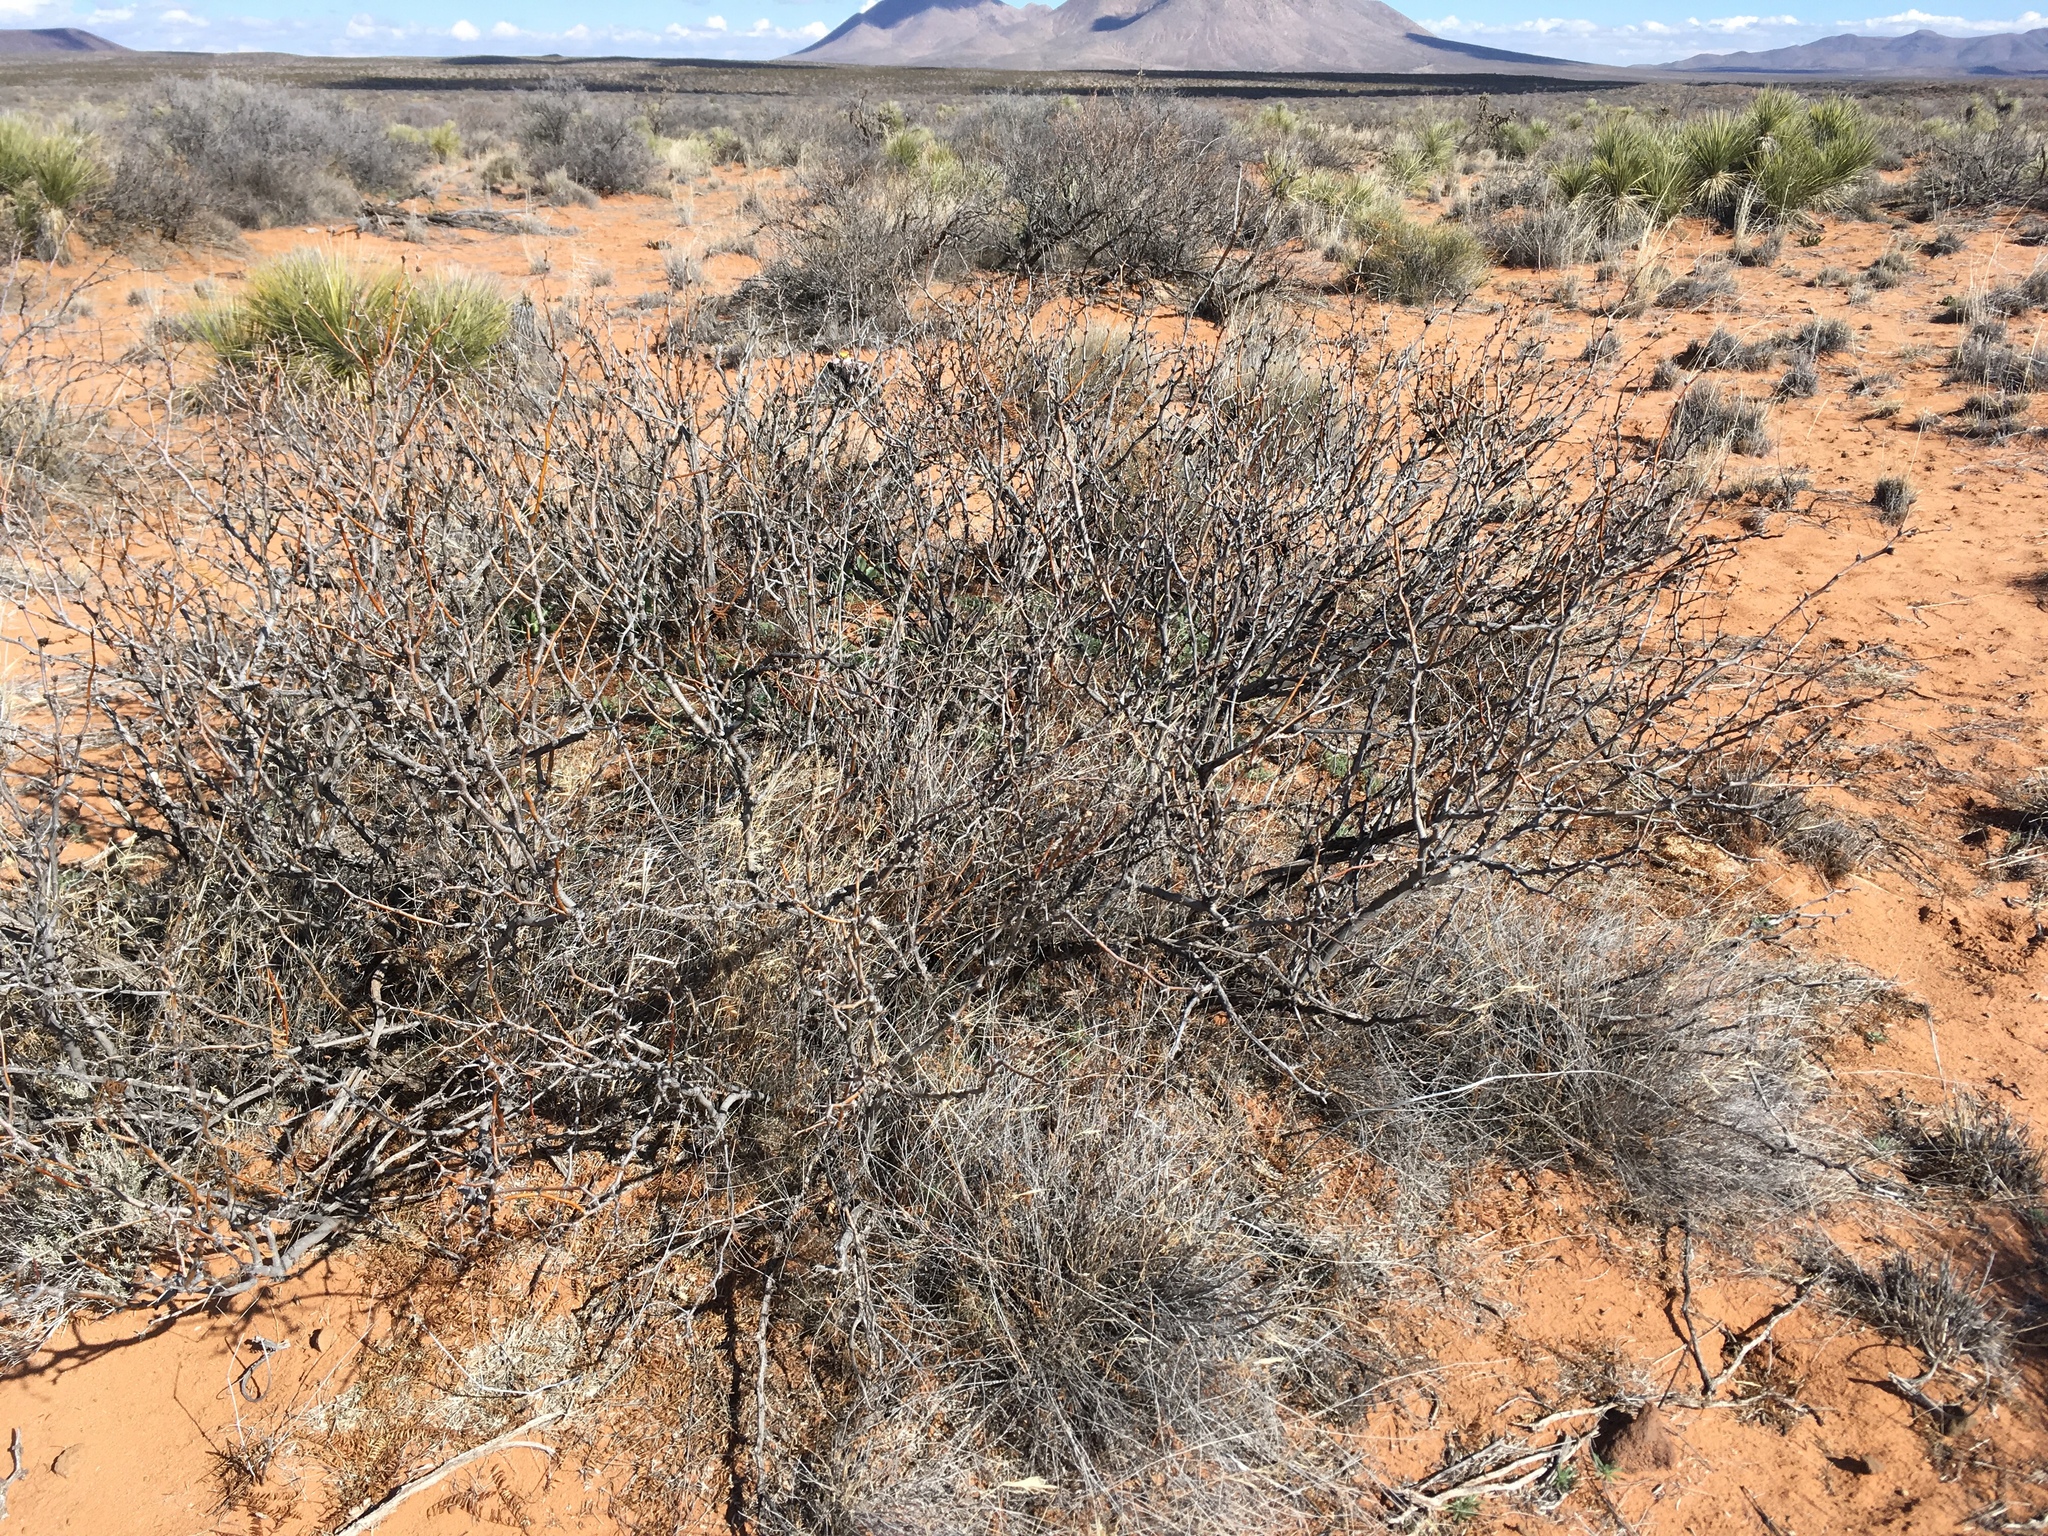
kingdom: Plantae
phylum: Tracheophyta
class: Magnoliopsida
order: Fabales
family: Fabaceae
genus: Prosopis
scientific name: Prosopis glandulosa
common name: Honey mesquite
